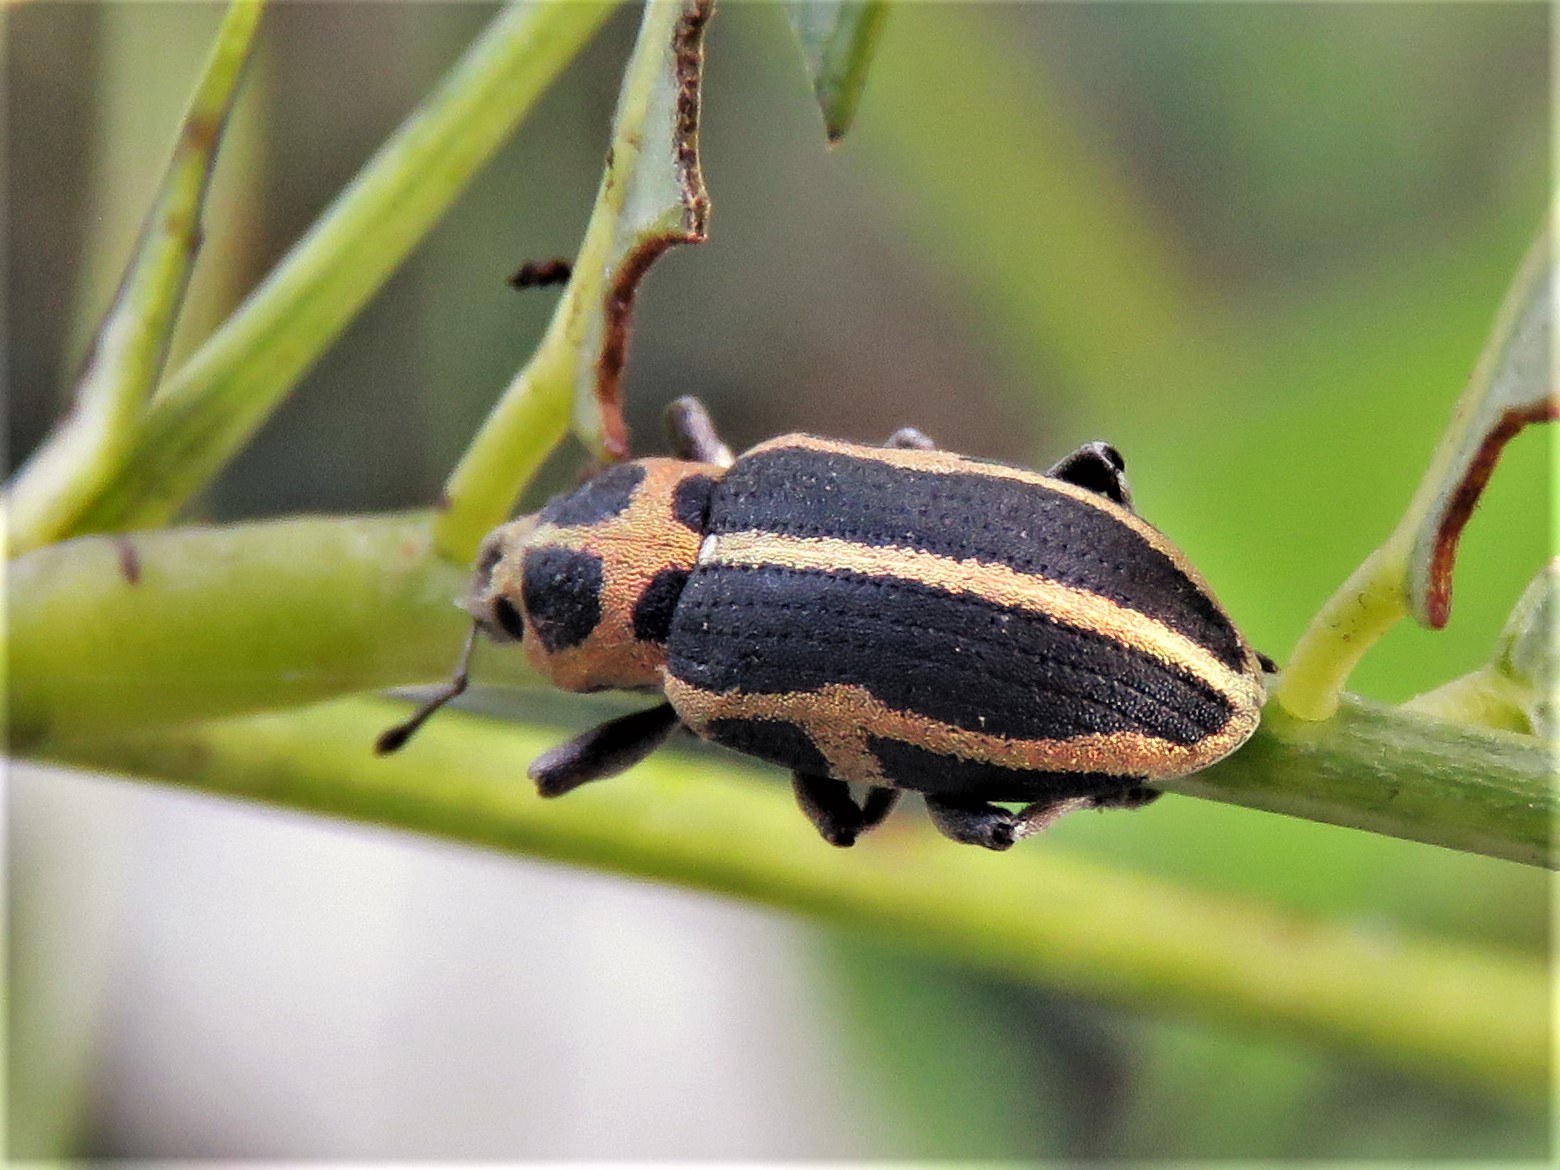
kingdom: Animalia
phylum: Arthropoda
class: Insecta
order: Coleoptera
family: Curculionidae
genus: Eudiagogus
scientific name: Eudiagogus pulcher
